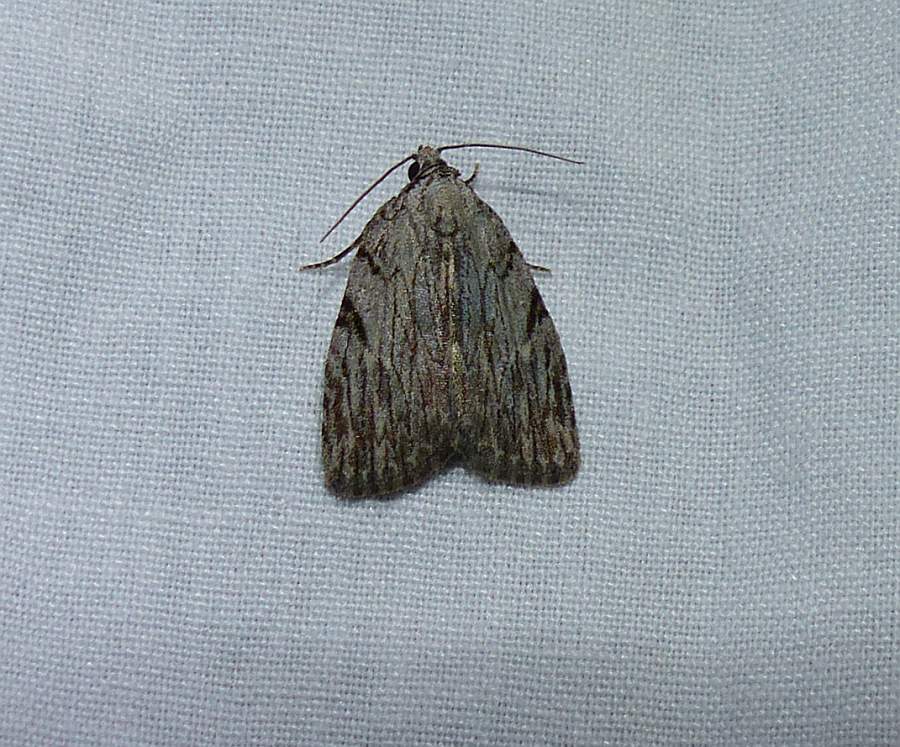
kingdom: Animalia
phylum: Arthropoda
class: Insecta
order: Lepidoptera
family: Noctuidae
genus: Balsa
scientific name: Balsa tristrigella
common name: Three-lined balsa moth
